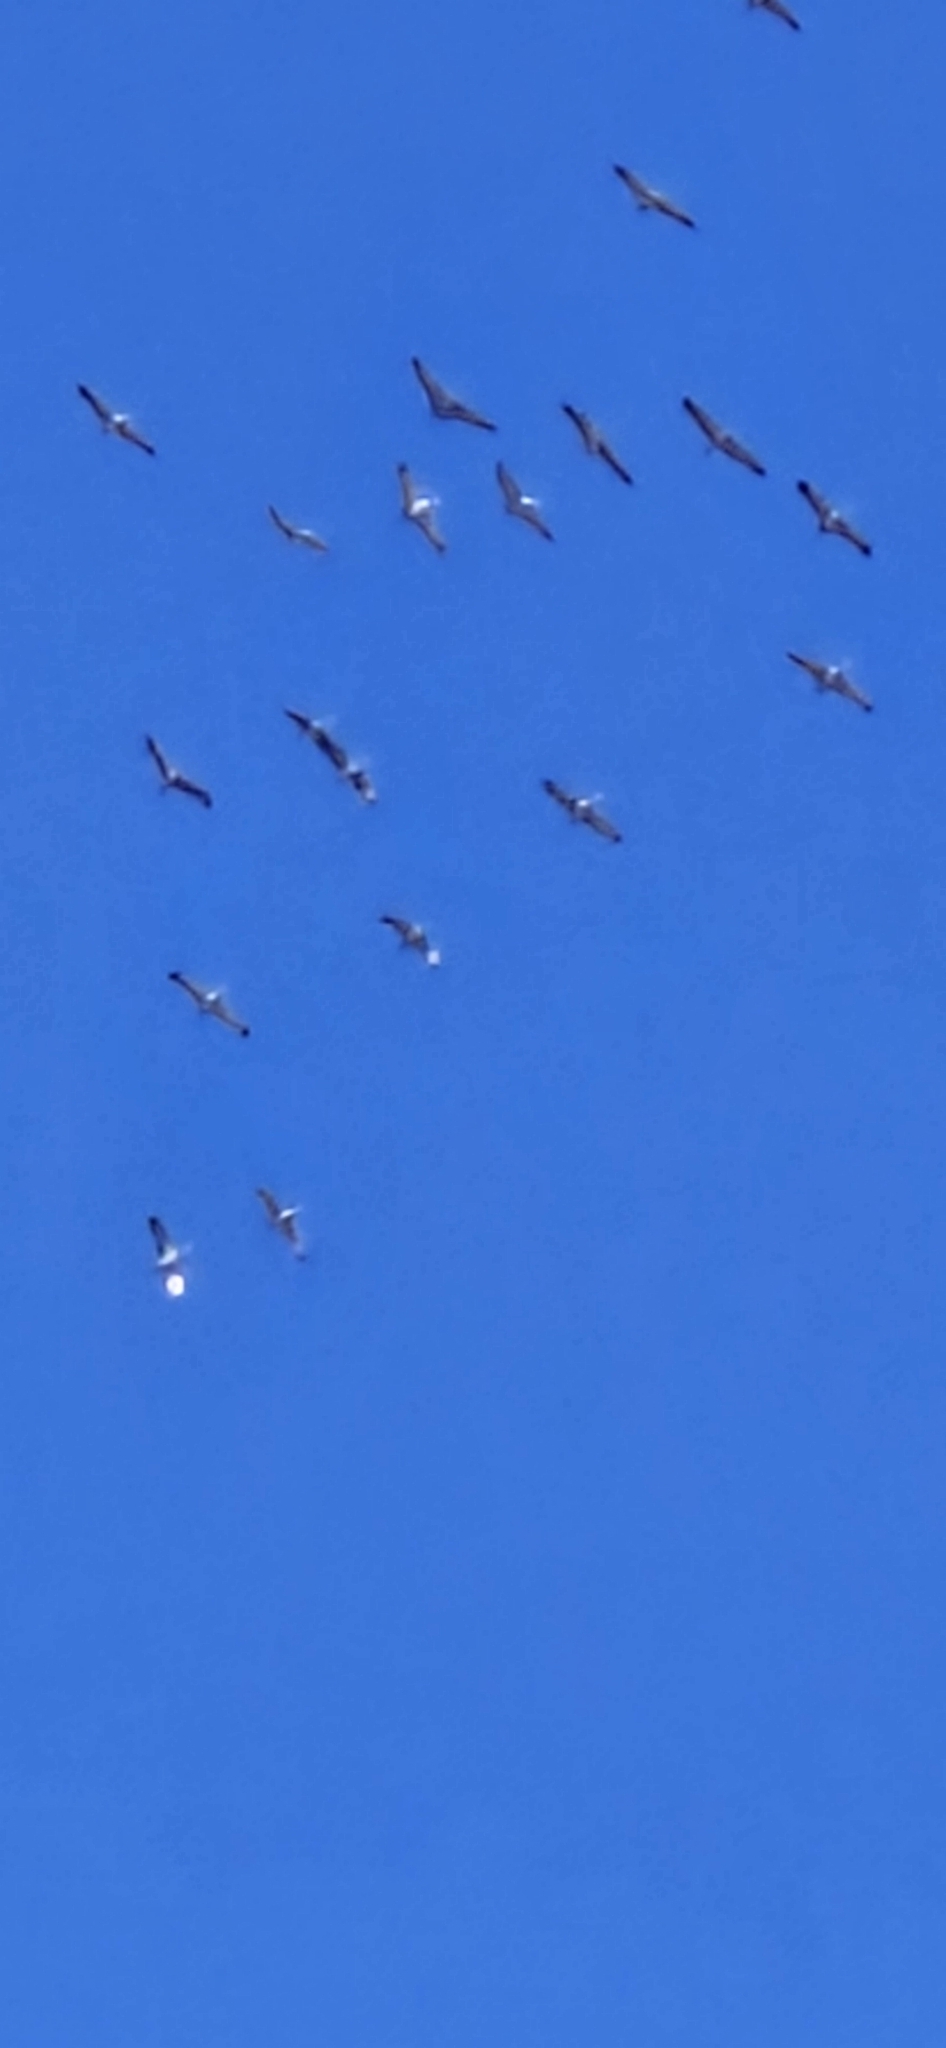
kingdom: Animalia
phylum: Chordata
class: Aves
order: Gruiformes
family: Gruidae
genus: Grus
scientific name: Grus canadensis
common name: Sandhill crane
